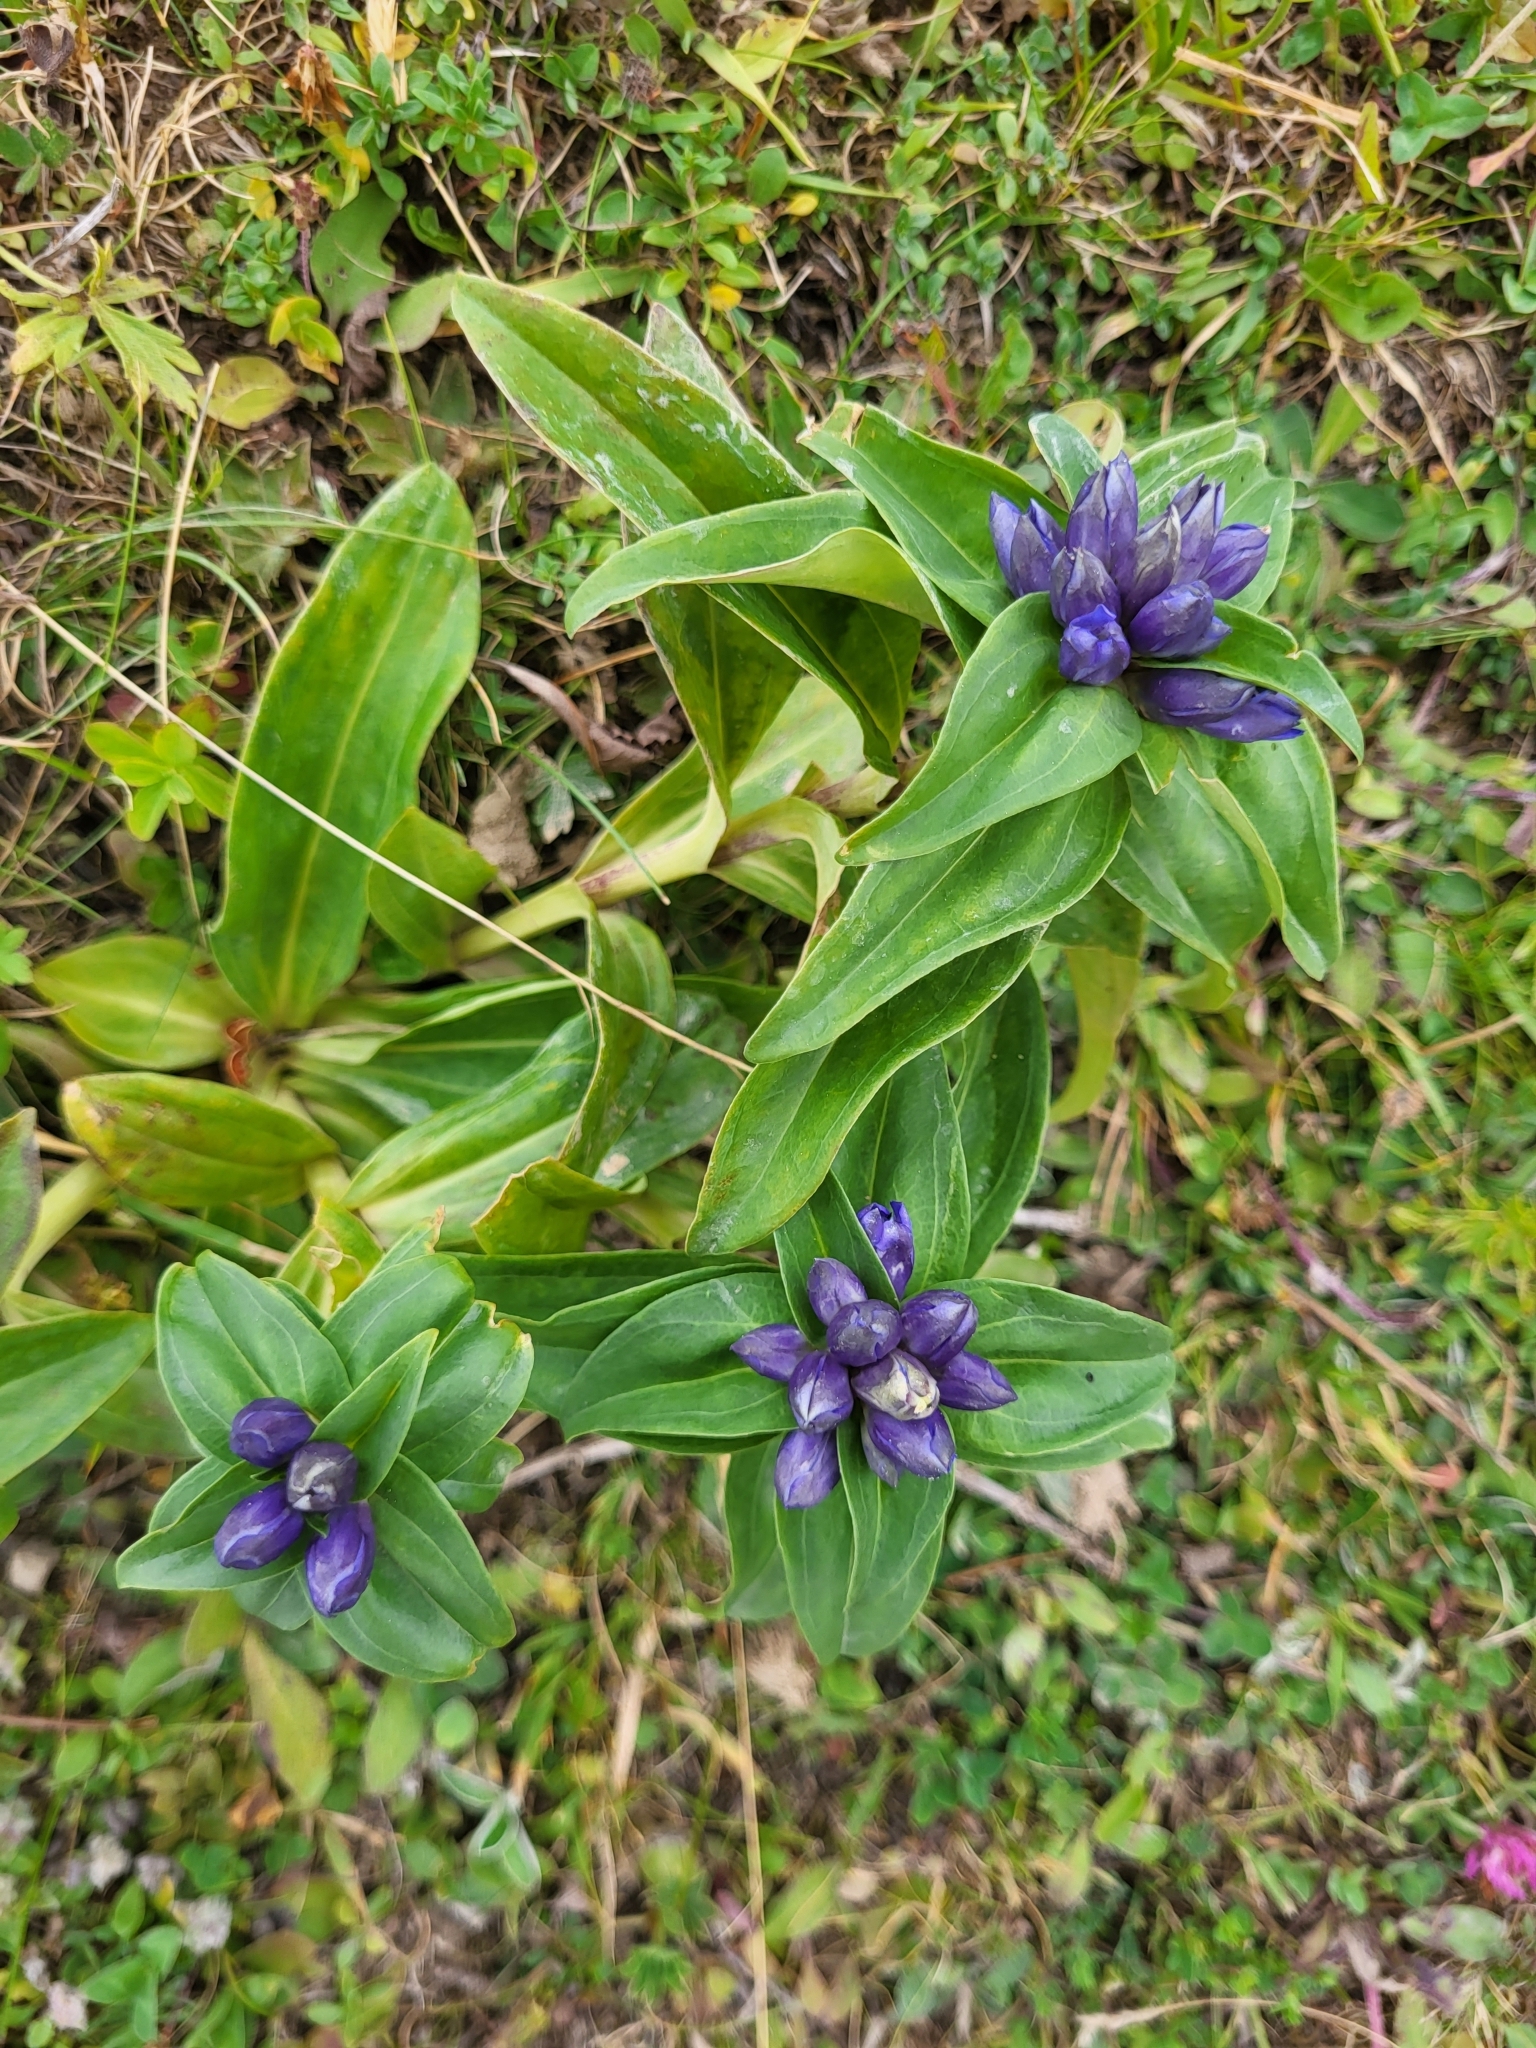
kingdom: Plantae
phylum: Tracheophyta
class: Magnoliopsida
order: Gentianales
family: Gentianaceae
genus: Gentiana
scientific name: Gentiana cruciata
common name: Cross gentian
